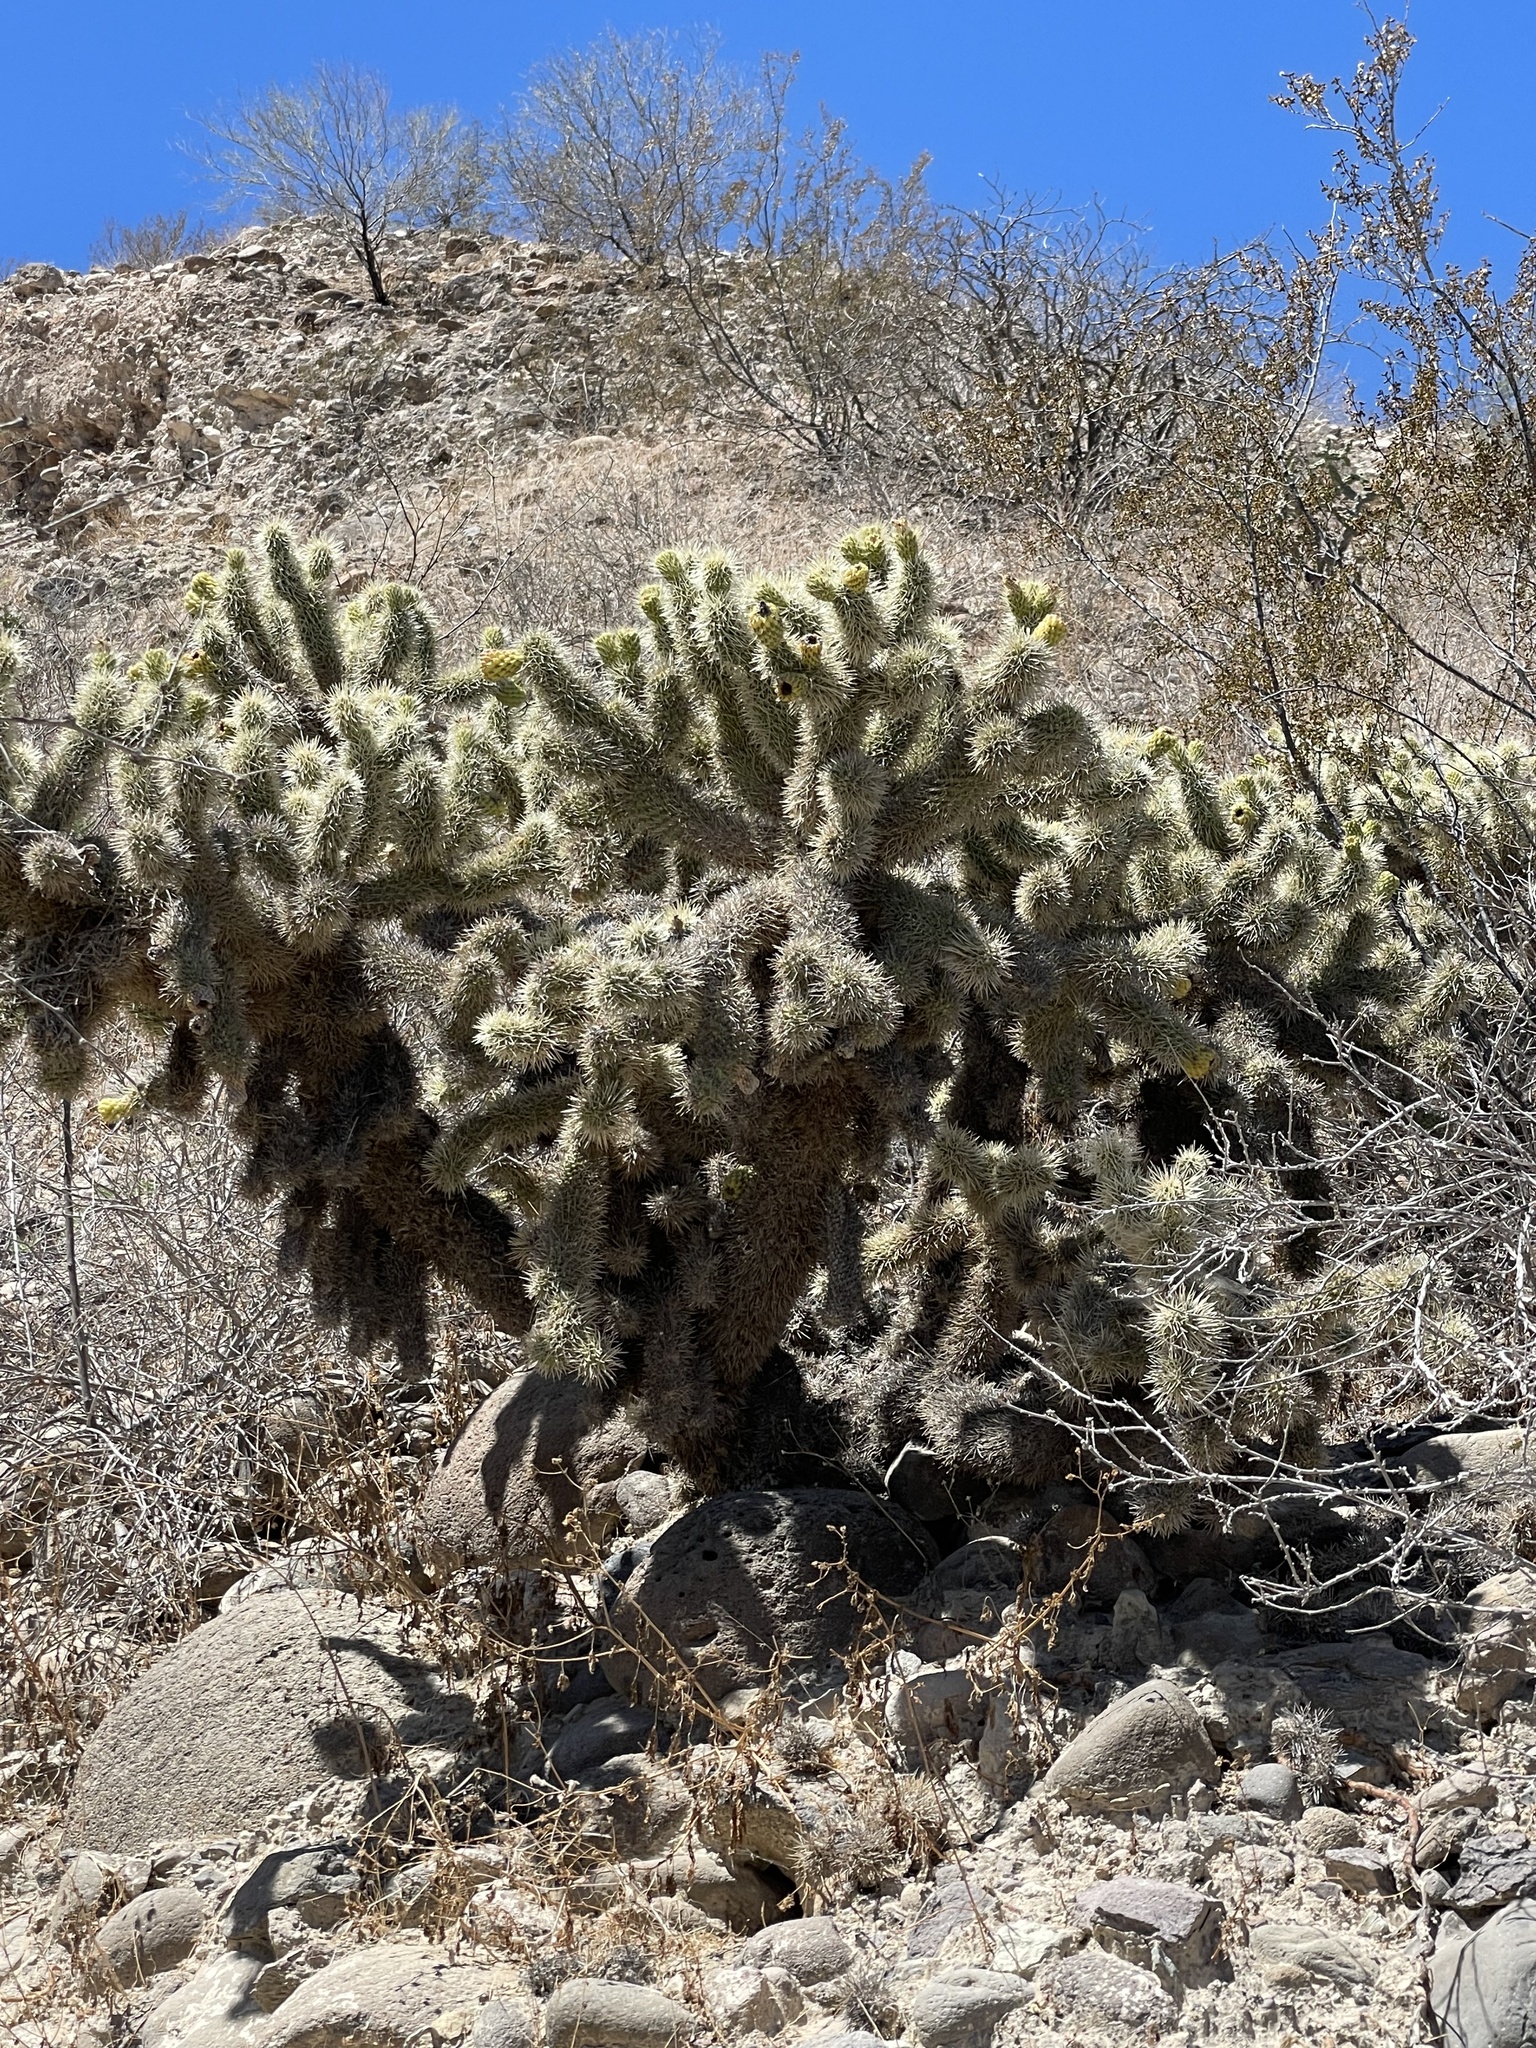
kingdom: Plantae
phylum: Tracheophyta
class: Magnoliopsida
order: Caryophyllales
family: Cactaceae
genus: Cylindropuntia
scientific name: Cylindropuntia fosbergii
